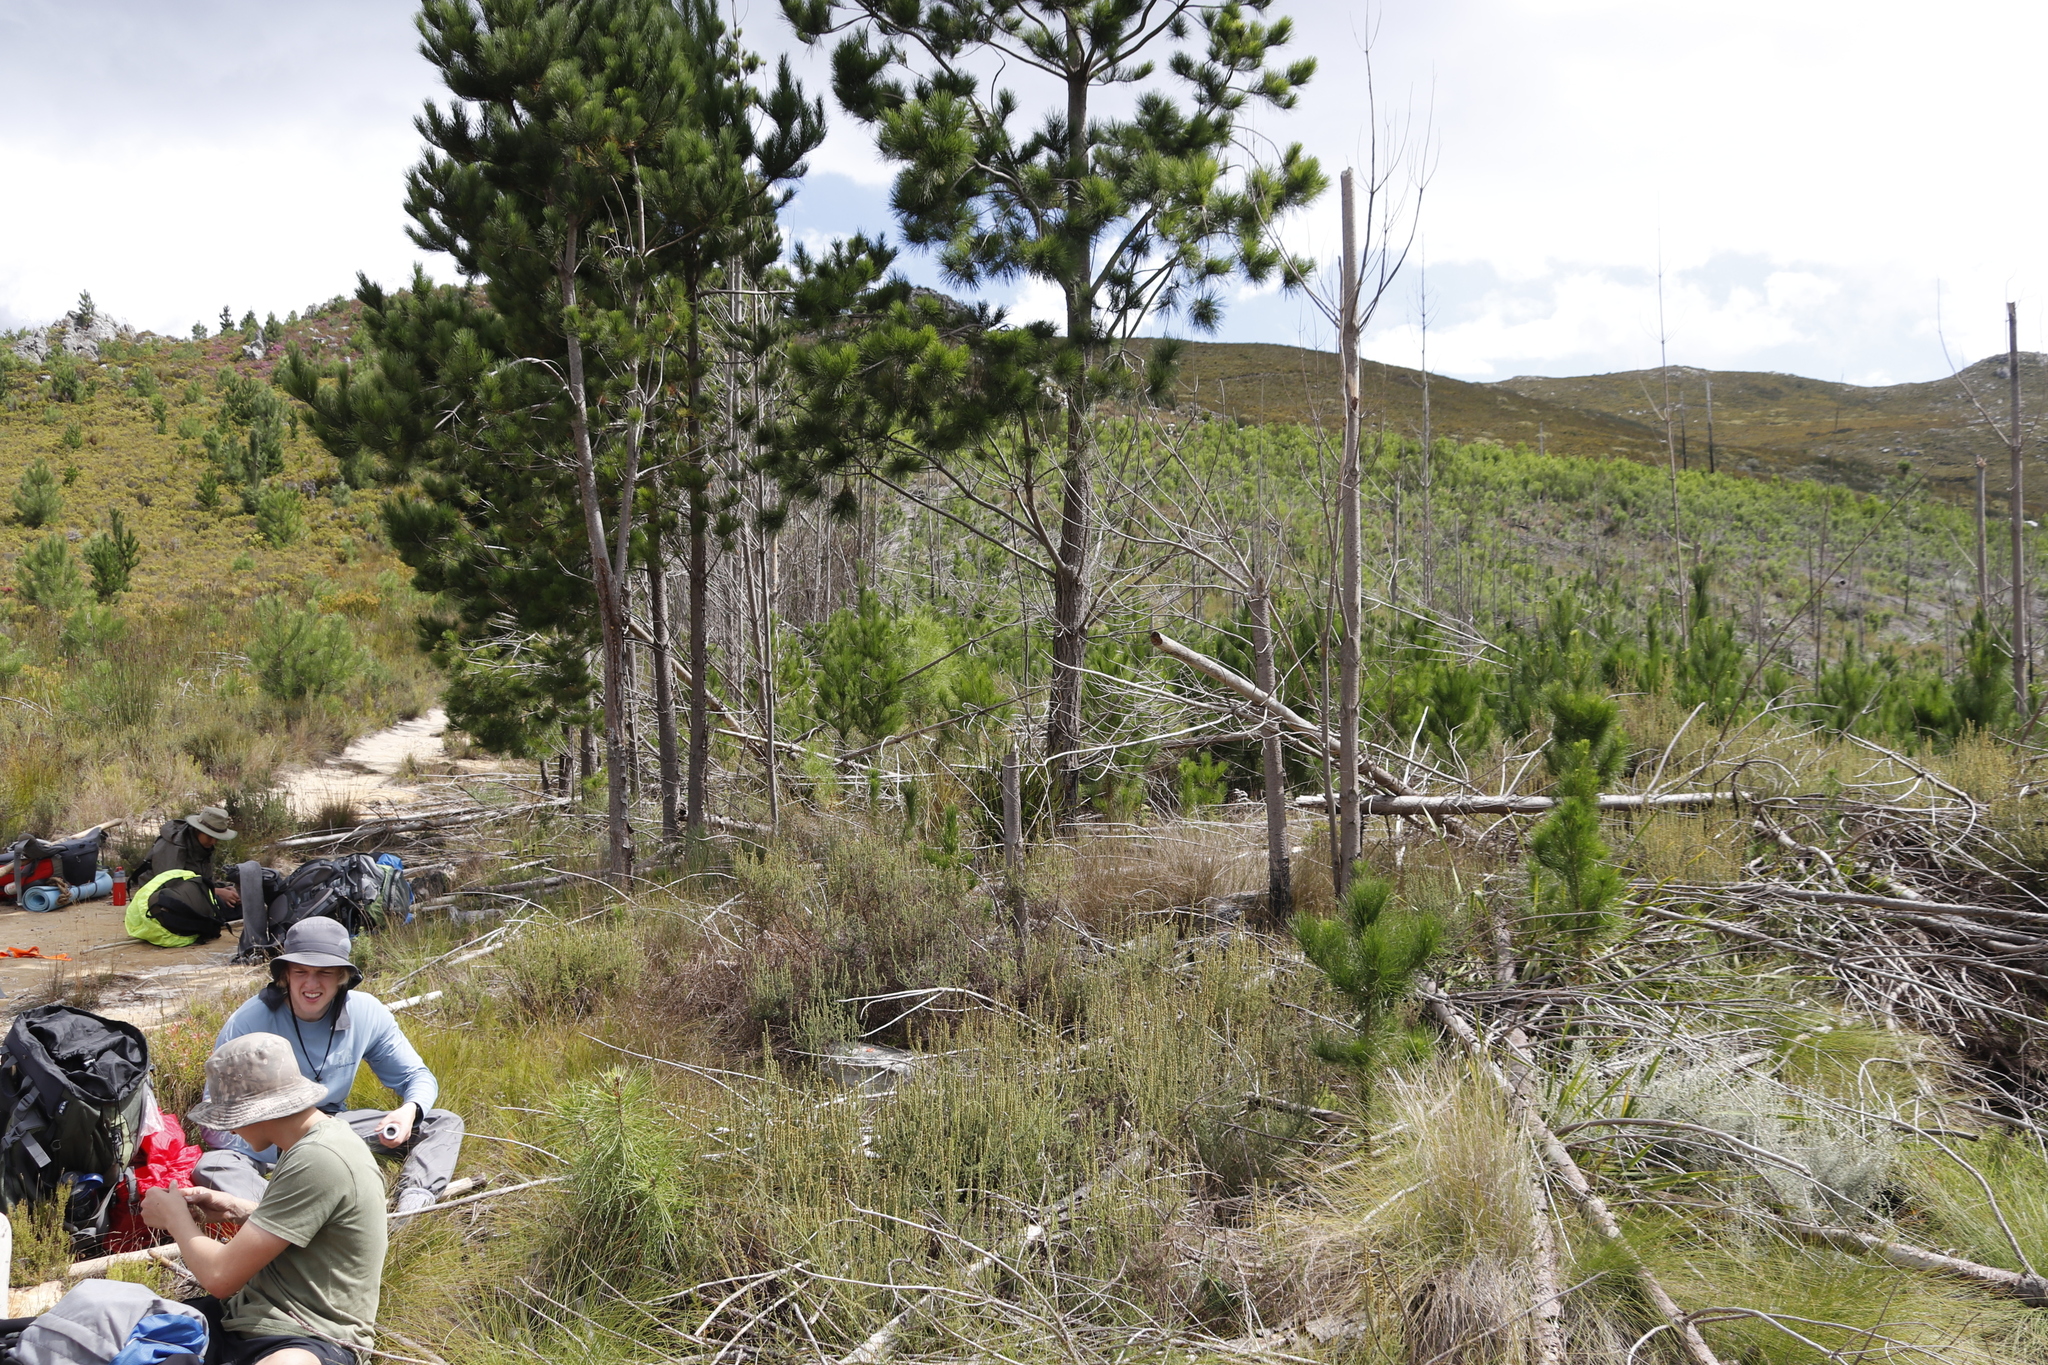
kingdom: Plantae
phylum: Tracheophyta
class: Pinopsida
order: Pinales
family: Pinaceae
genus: Pinus
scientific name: Pinus radiata
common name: Monterey pine
